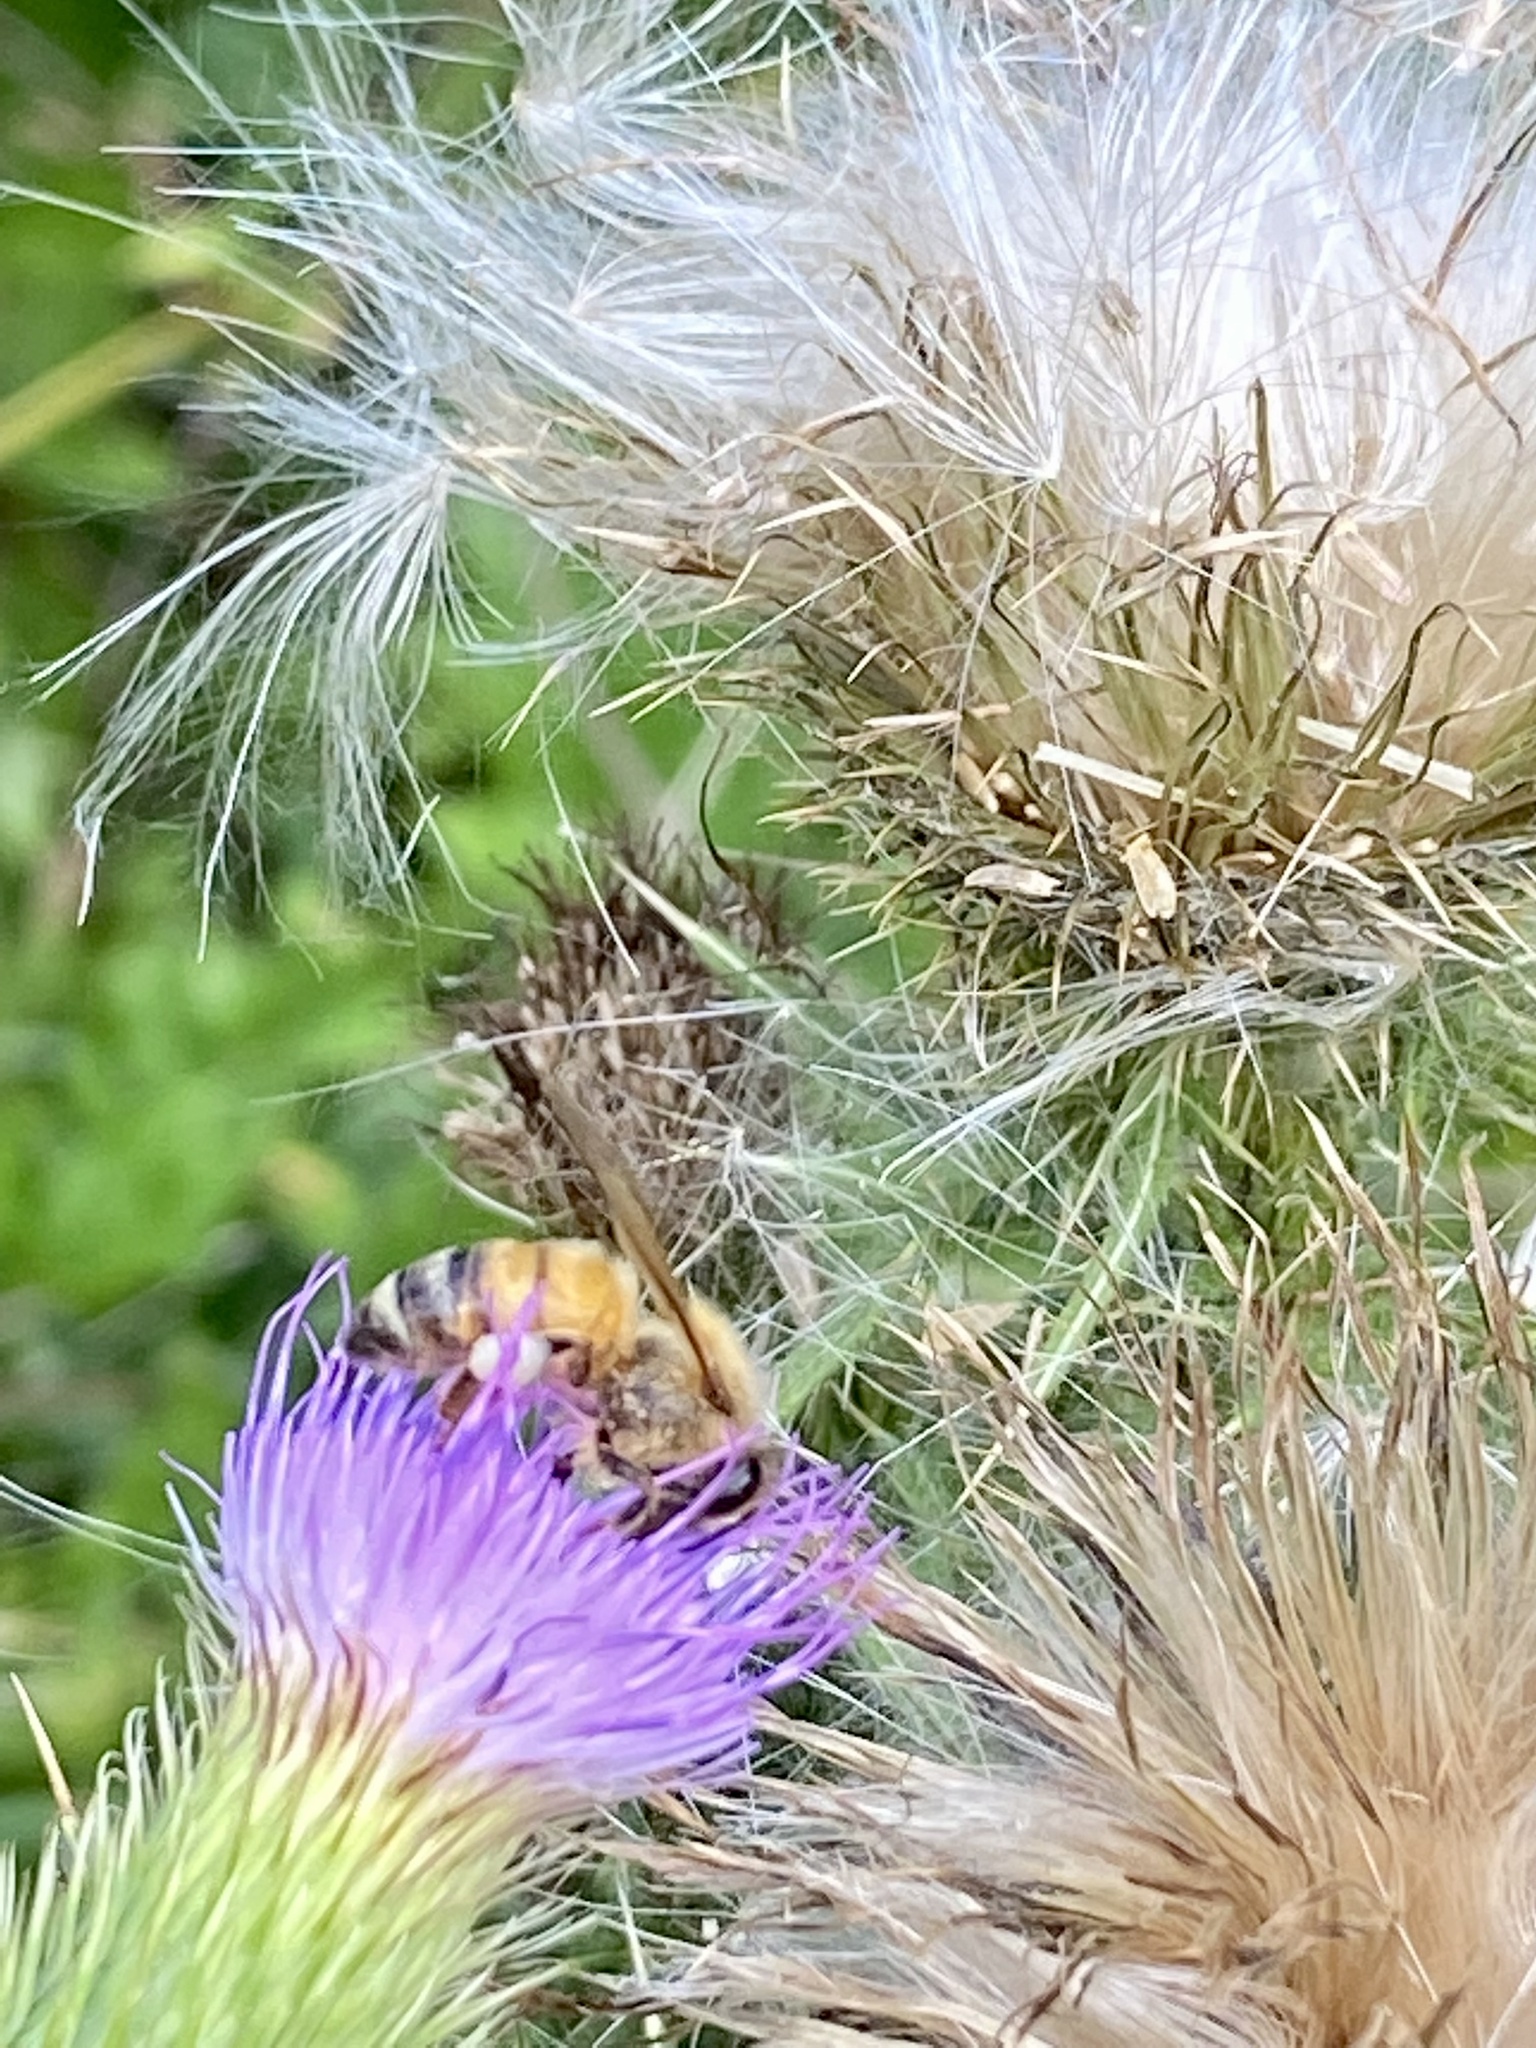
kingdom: Animalia
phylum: Arthropoda
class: Insecta
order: Hymenoptera
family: Apidae
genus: Apis
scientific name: Apis mellifera
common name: Honey bee
